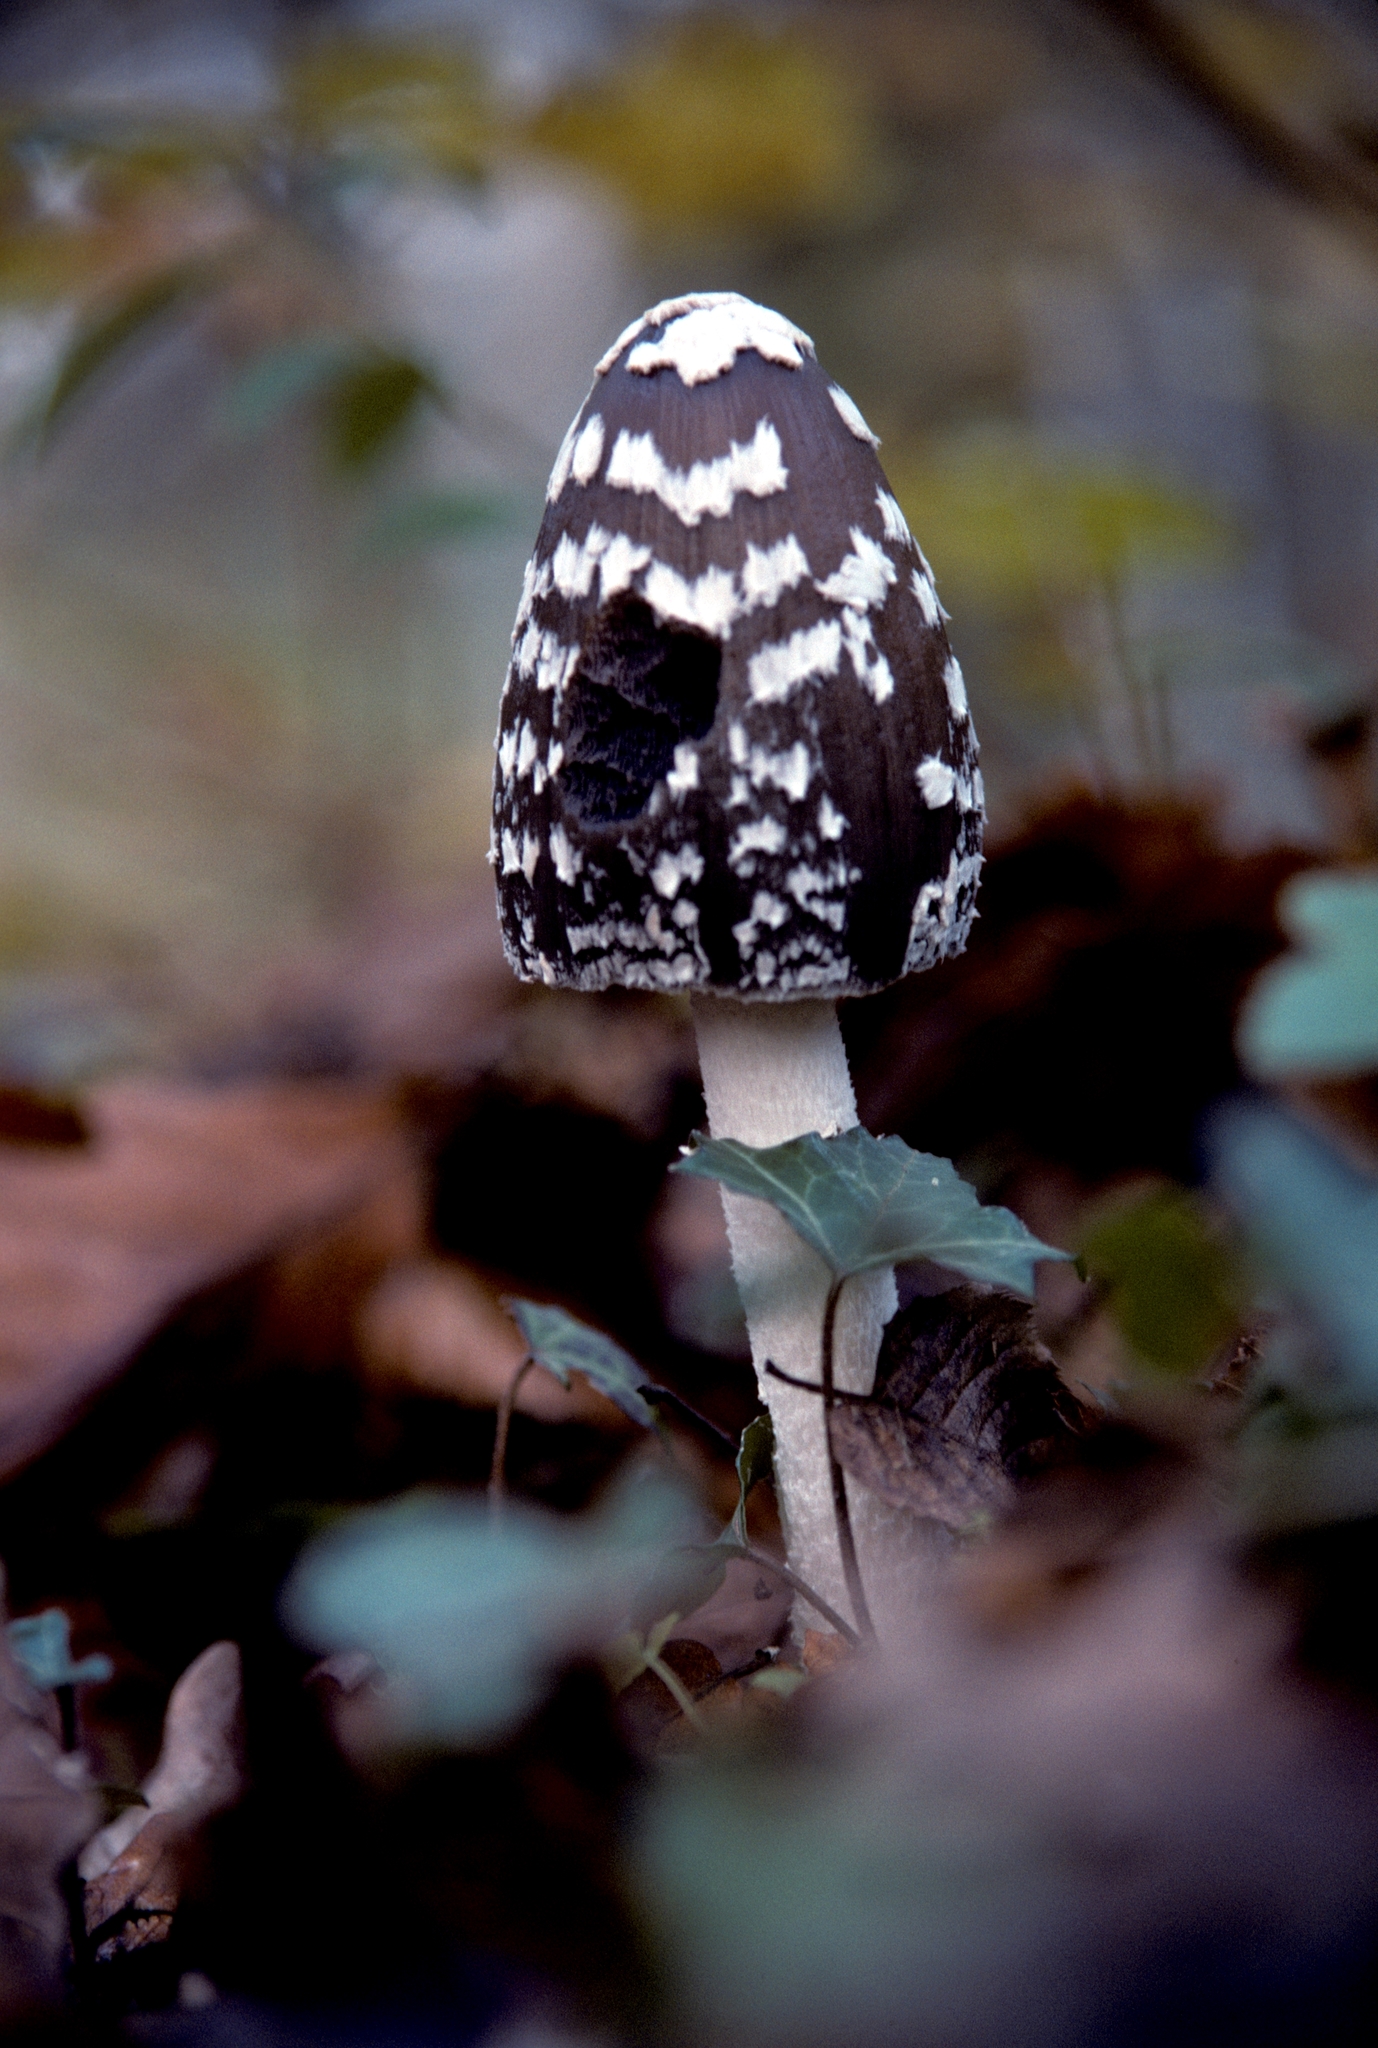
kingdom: Fungi
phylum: Basidiomycota
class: Agaricomycetes
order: Agaricales
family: Psathyrellaceae
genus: Coprinopsis
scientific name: Coprinopsis picacea
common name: Magpie inkcap
